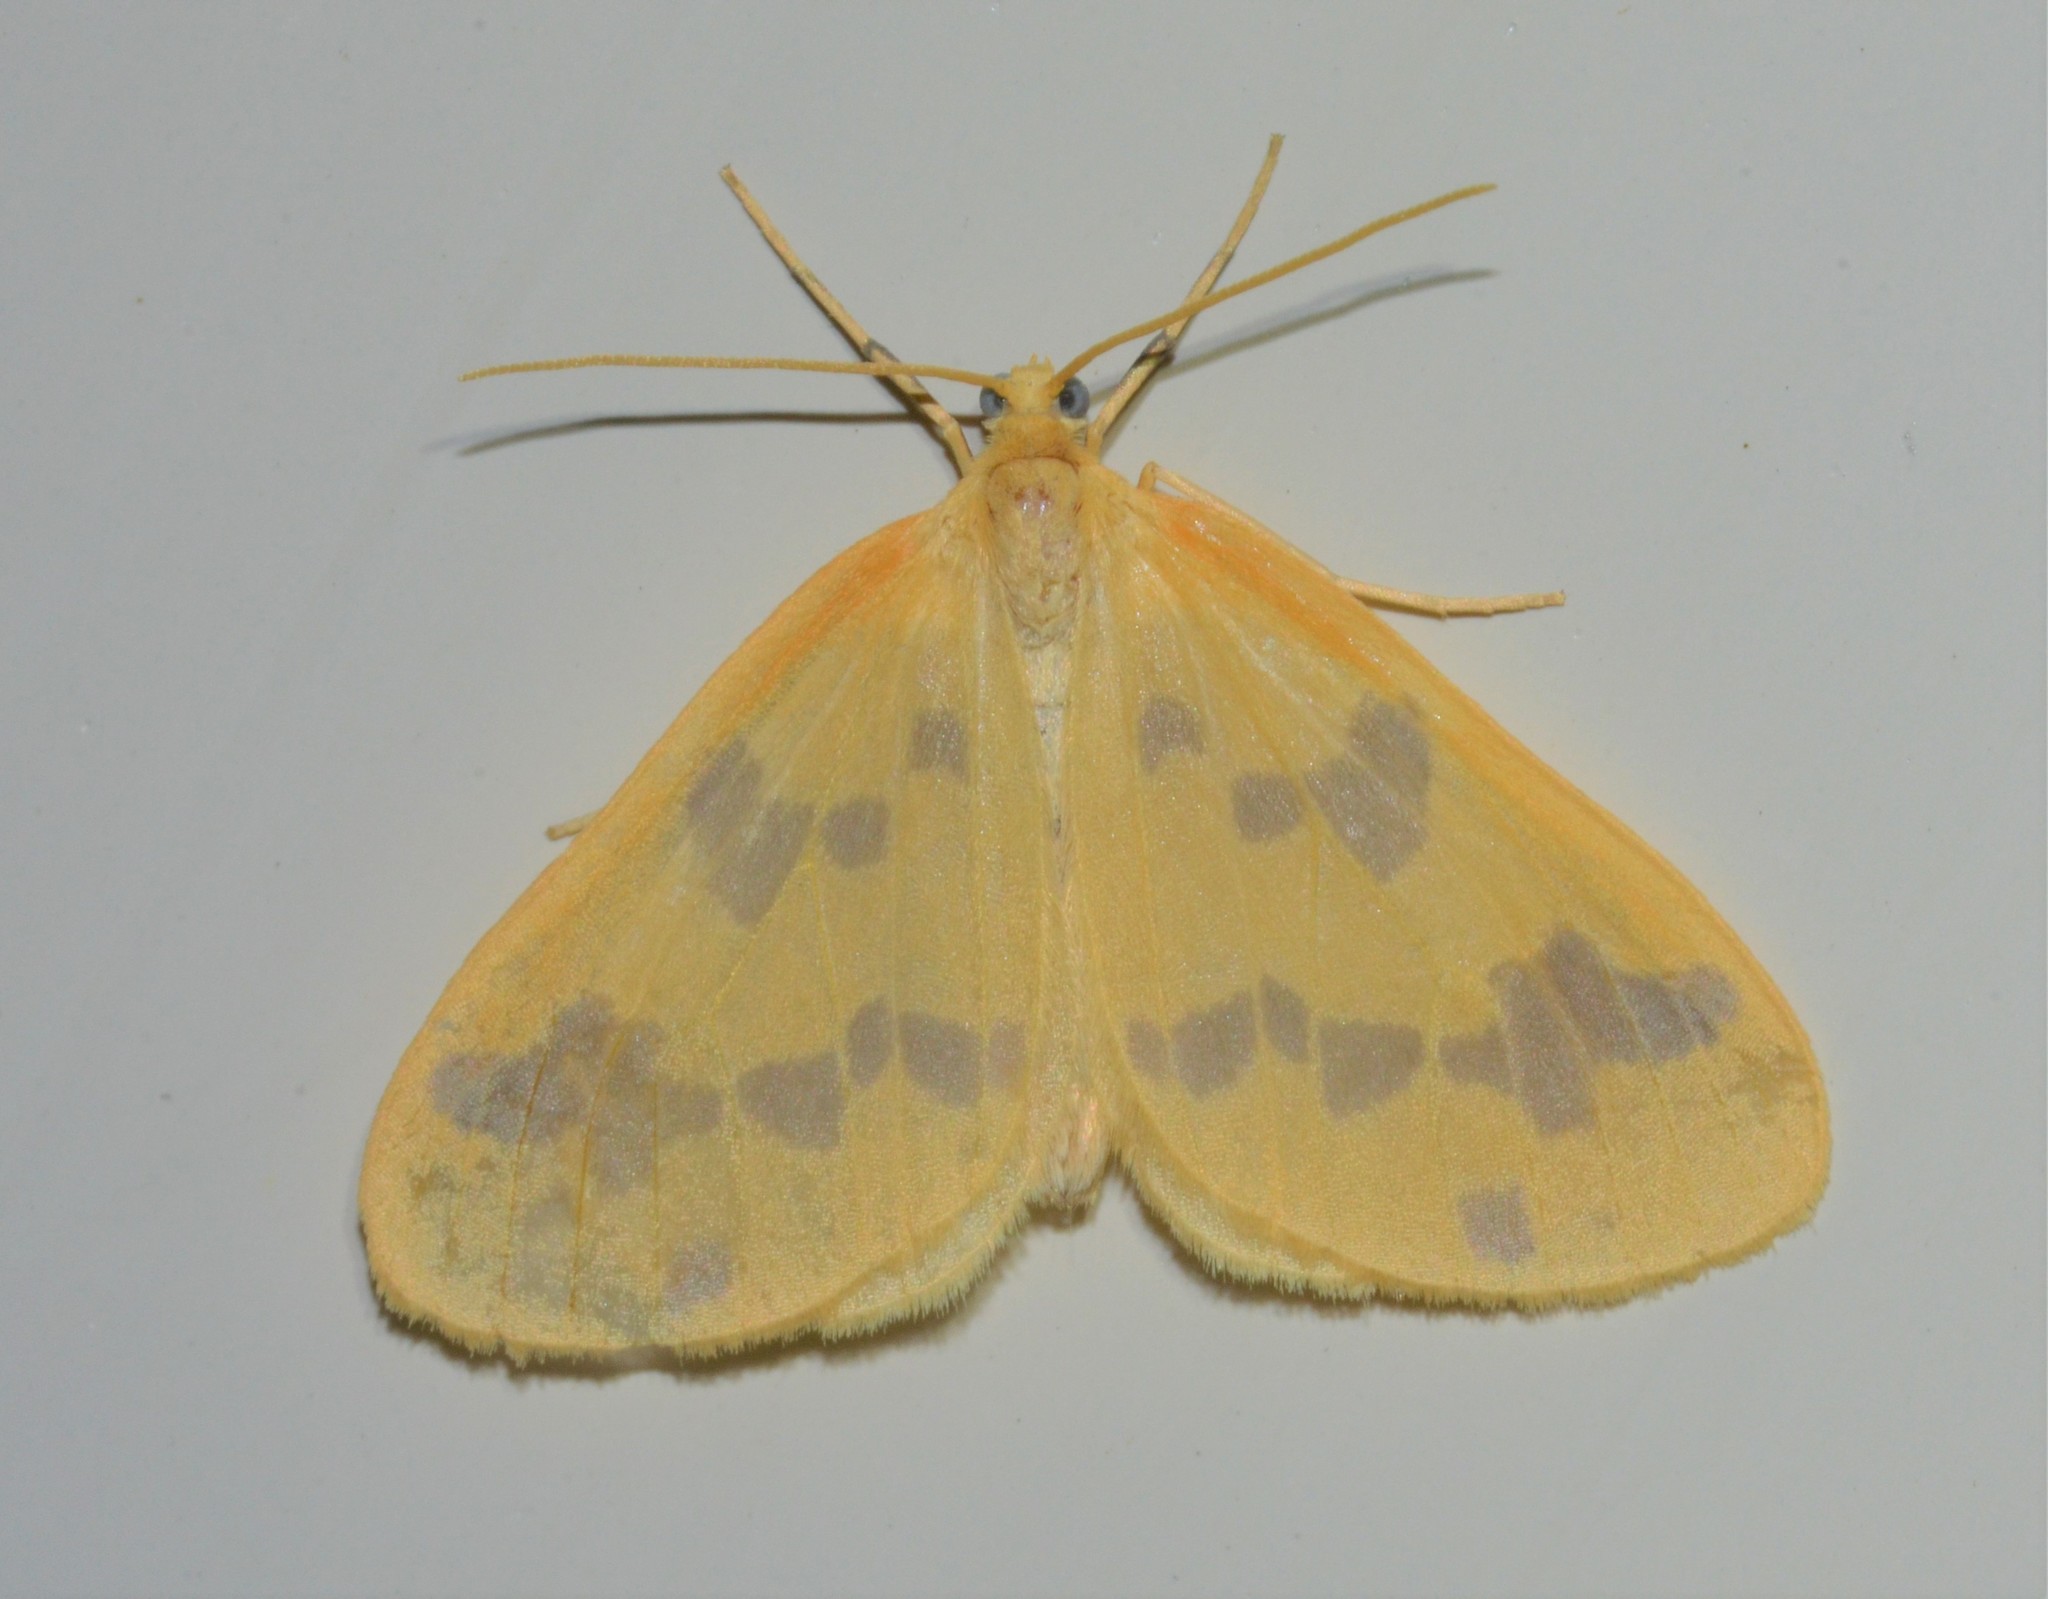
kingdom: Animalia
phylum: Arthropoda
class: Insecta
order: Lepidoptera
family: Geometridae
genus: Eubaphe
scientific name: Eubaphe mendica
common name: Beggar
